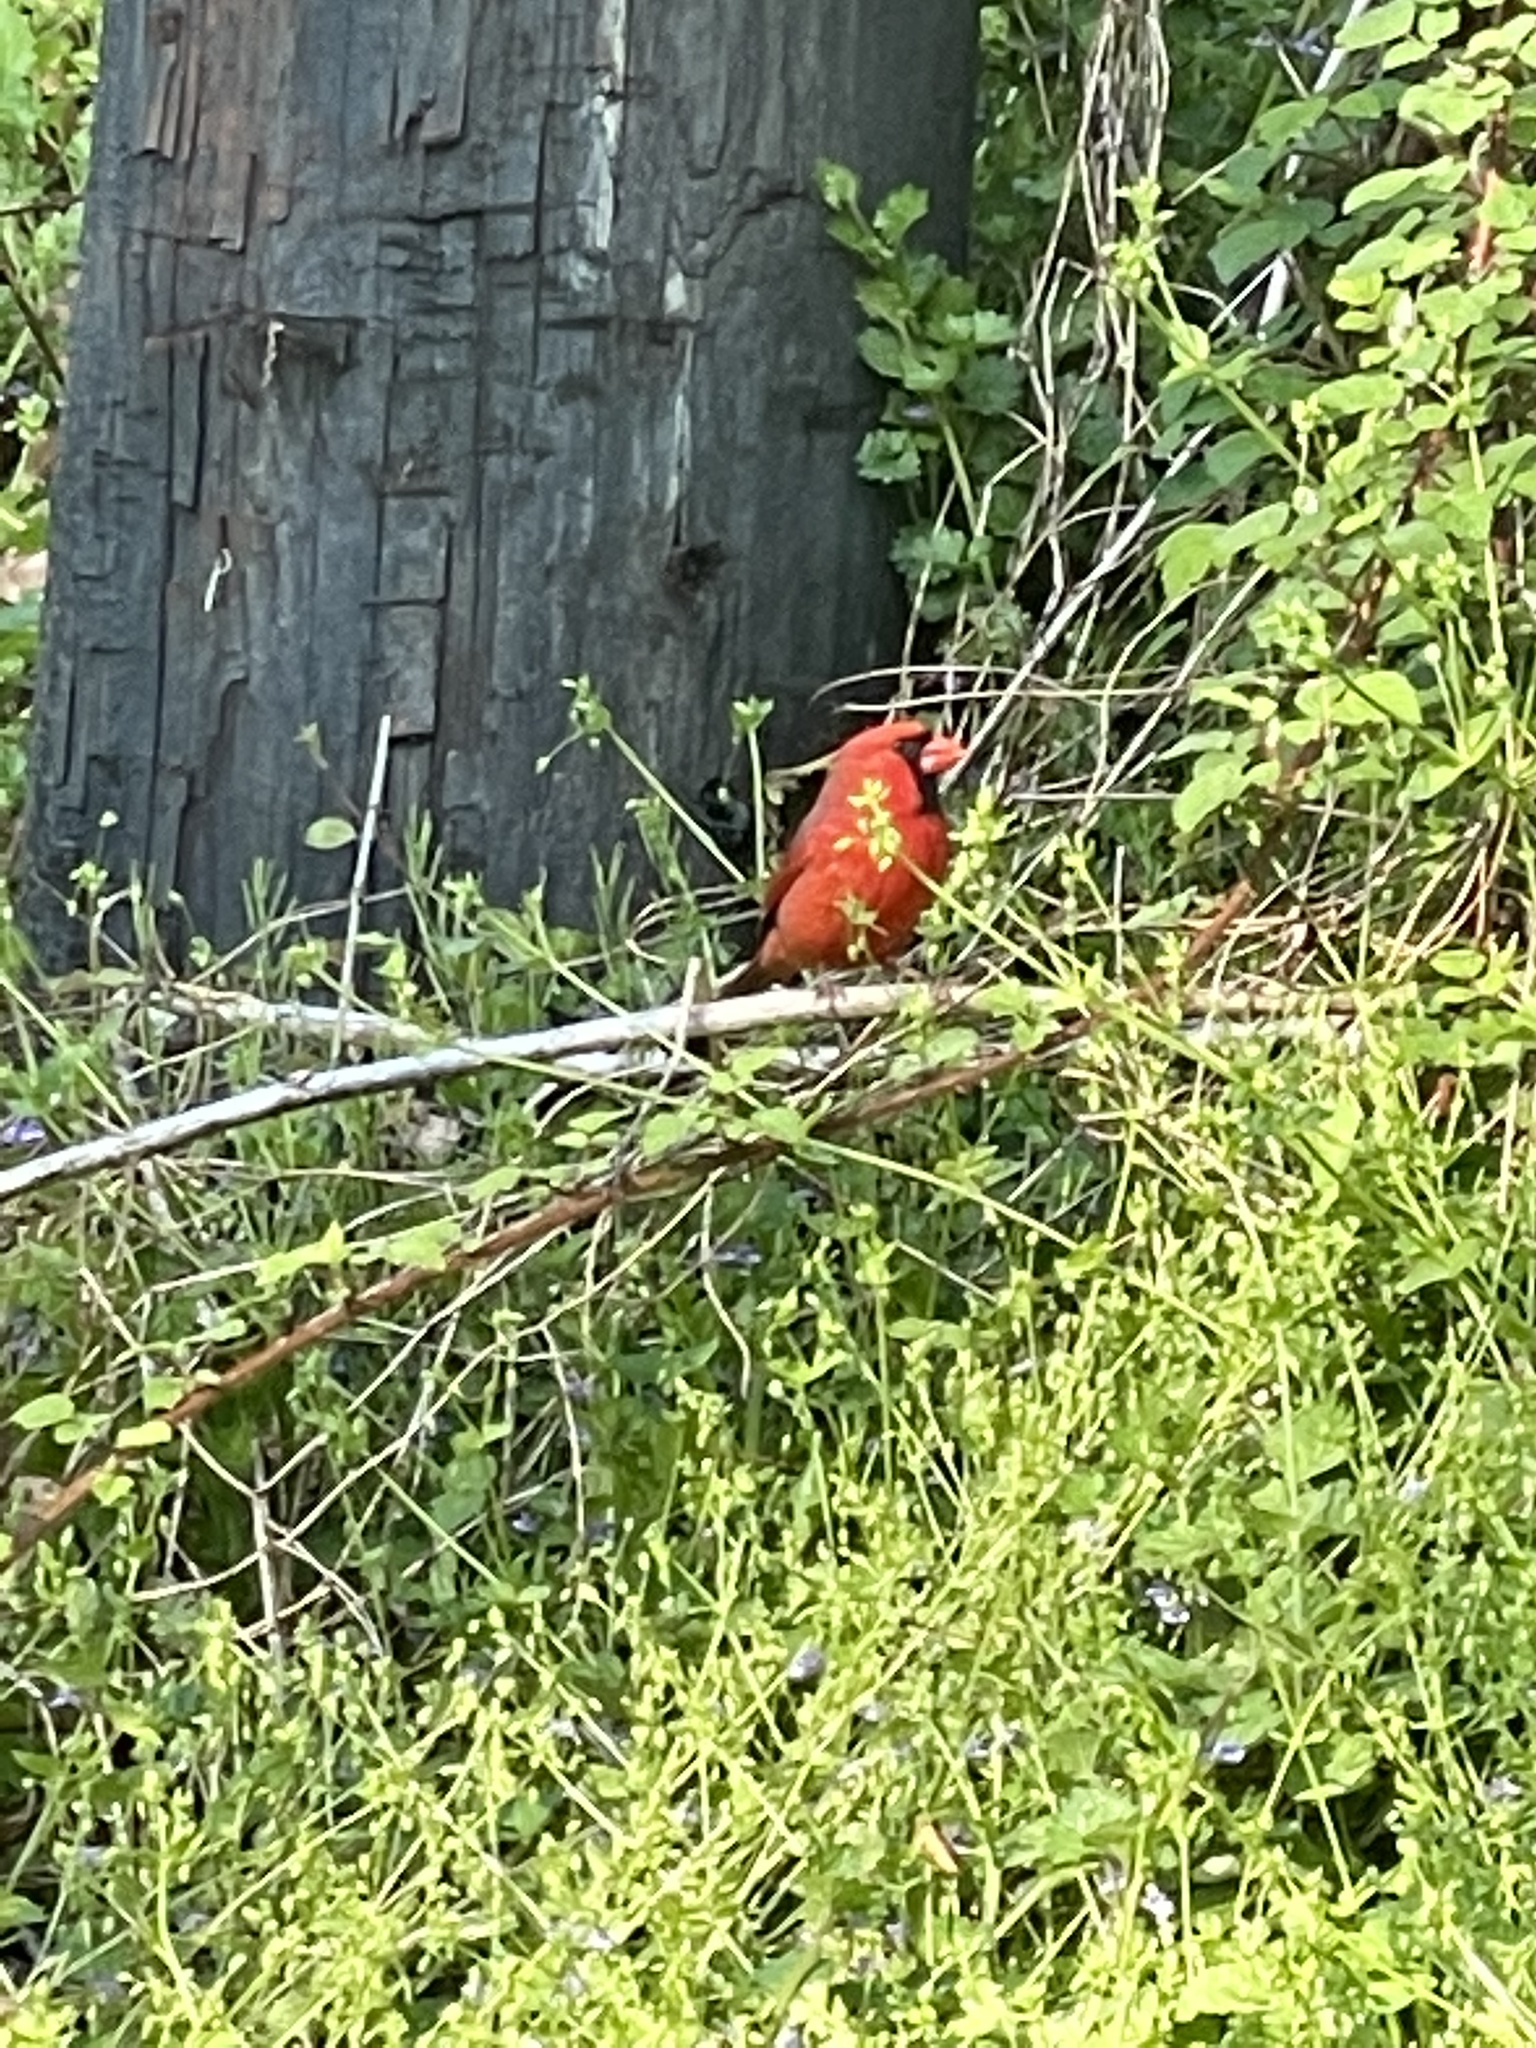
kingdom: Animalia
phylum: Chordata
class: Aves
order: Passeriformes
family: Cardinalidae
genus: Cardinalis
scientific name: Cardinalis cardinalis
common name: Northern cardinal
